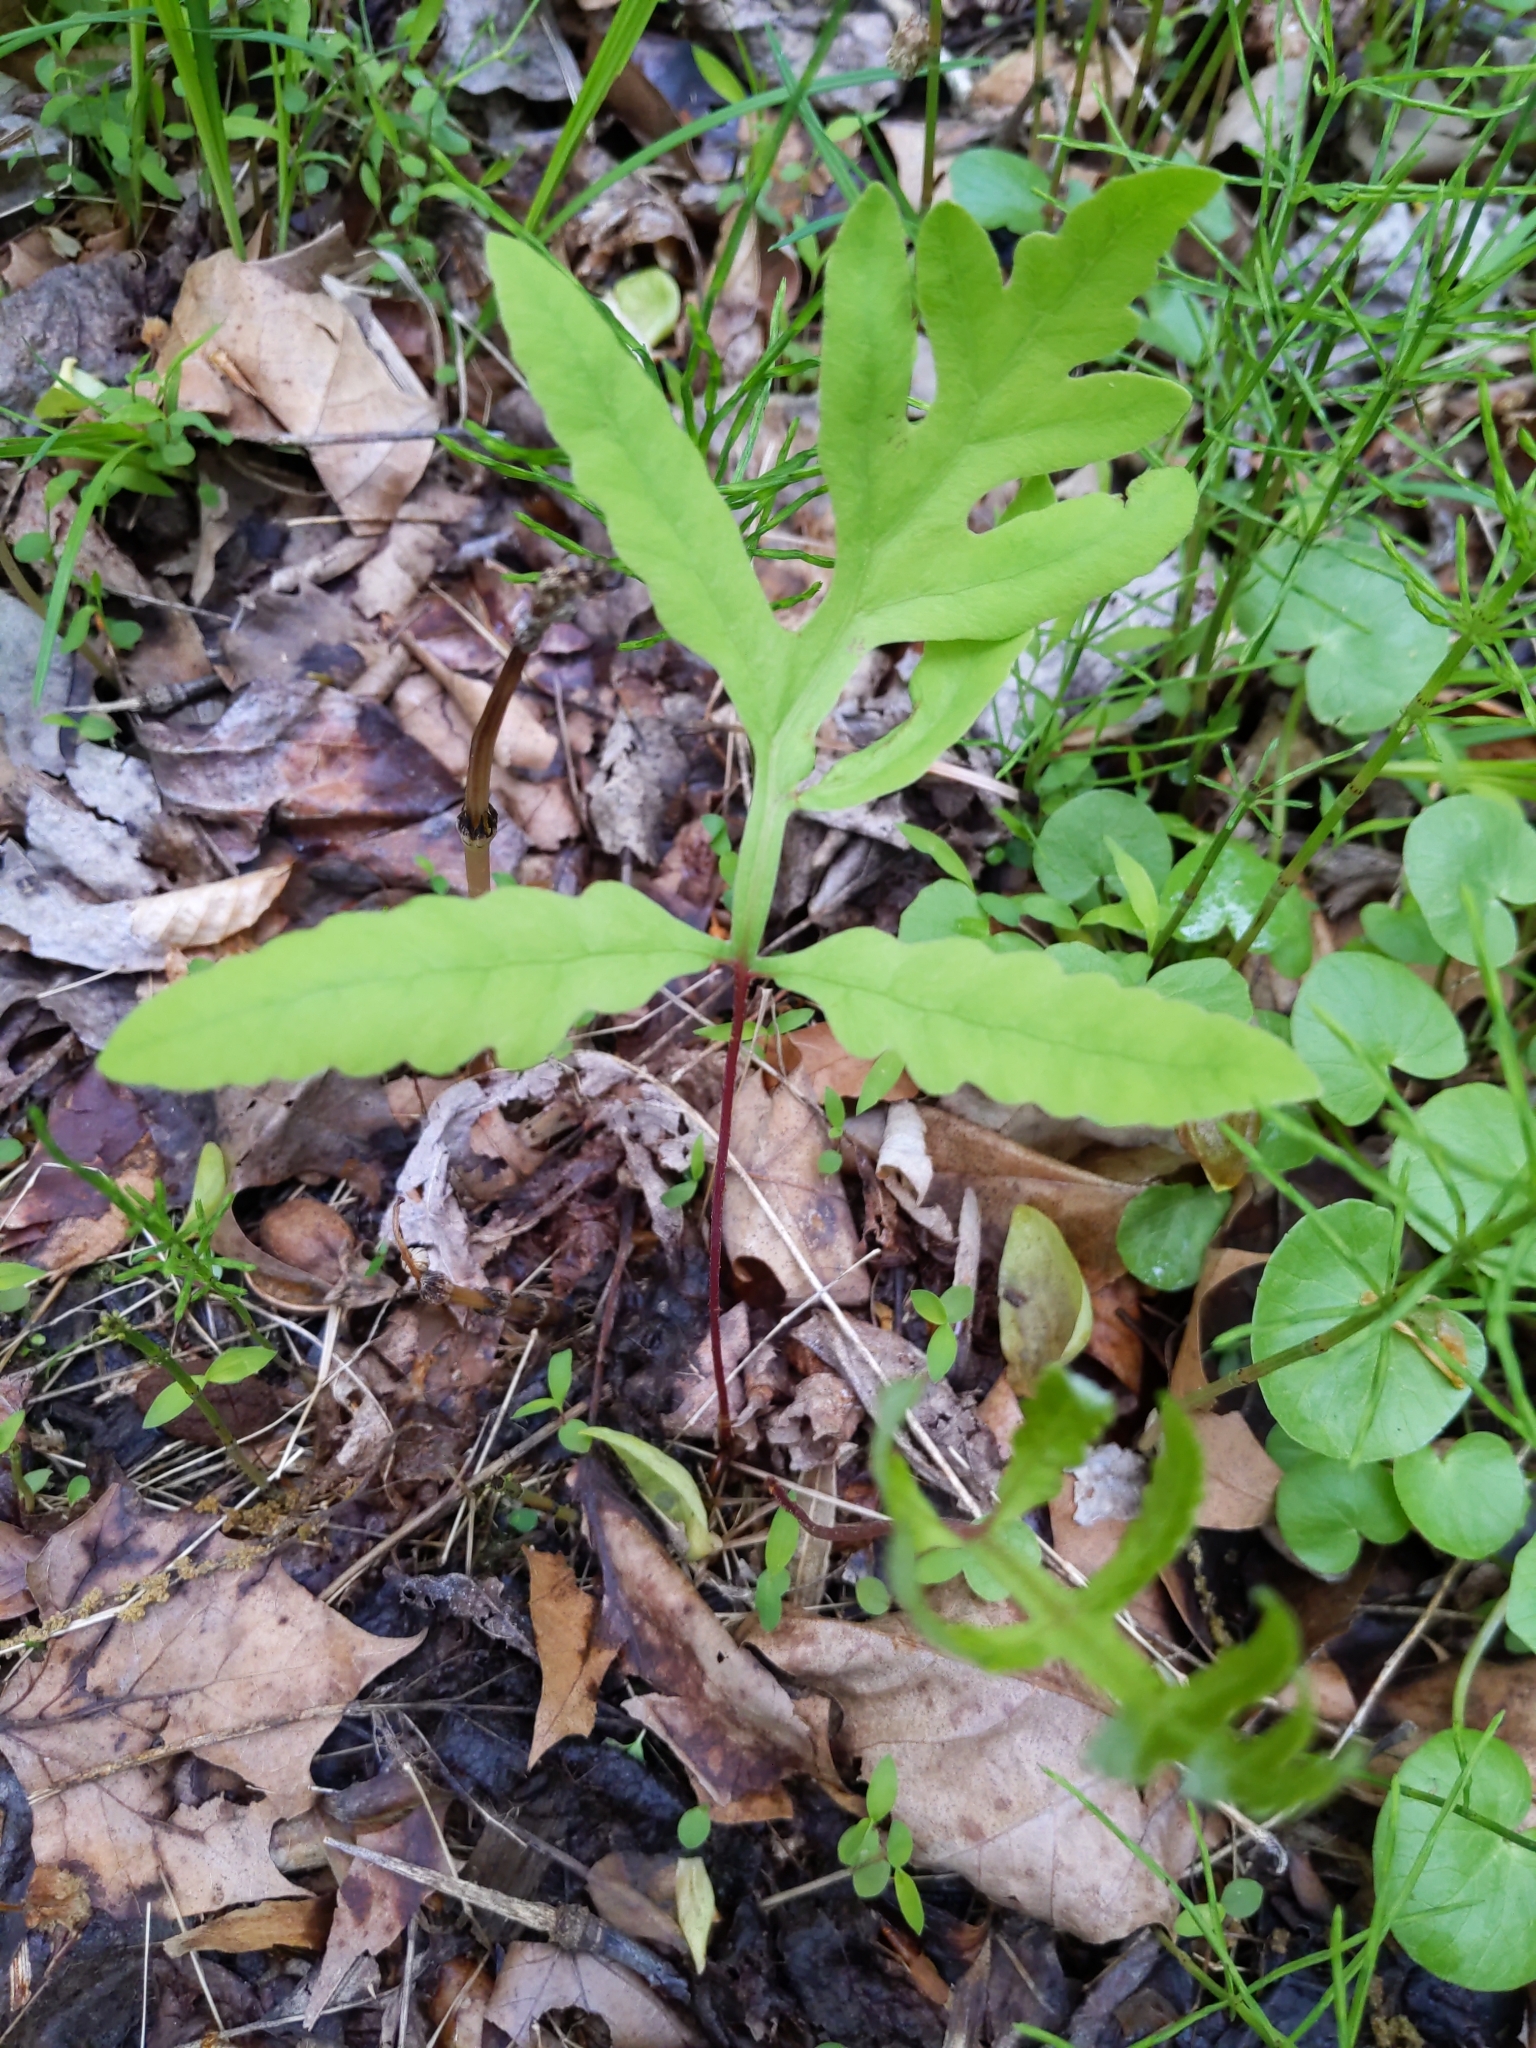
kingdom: Plantae
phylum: Tracheophyta
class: Polypodiopsida
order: Polypodiales
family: Onocleaceae
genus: Onoclea
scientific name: Onoclea sensibilis
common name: Sensitive fern
